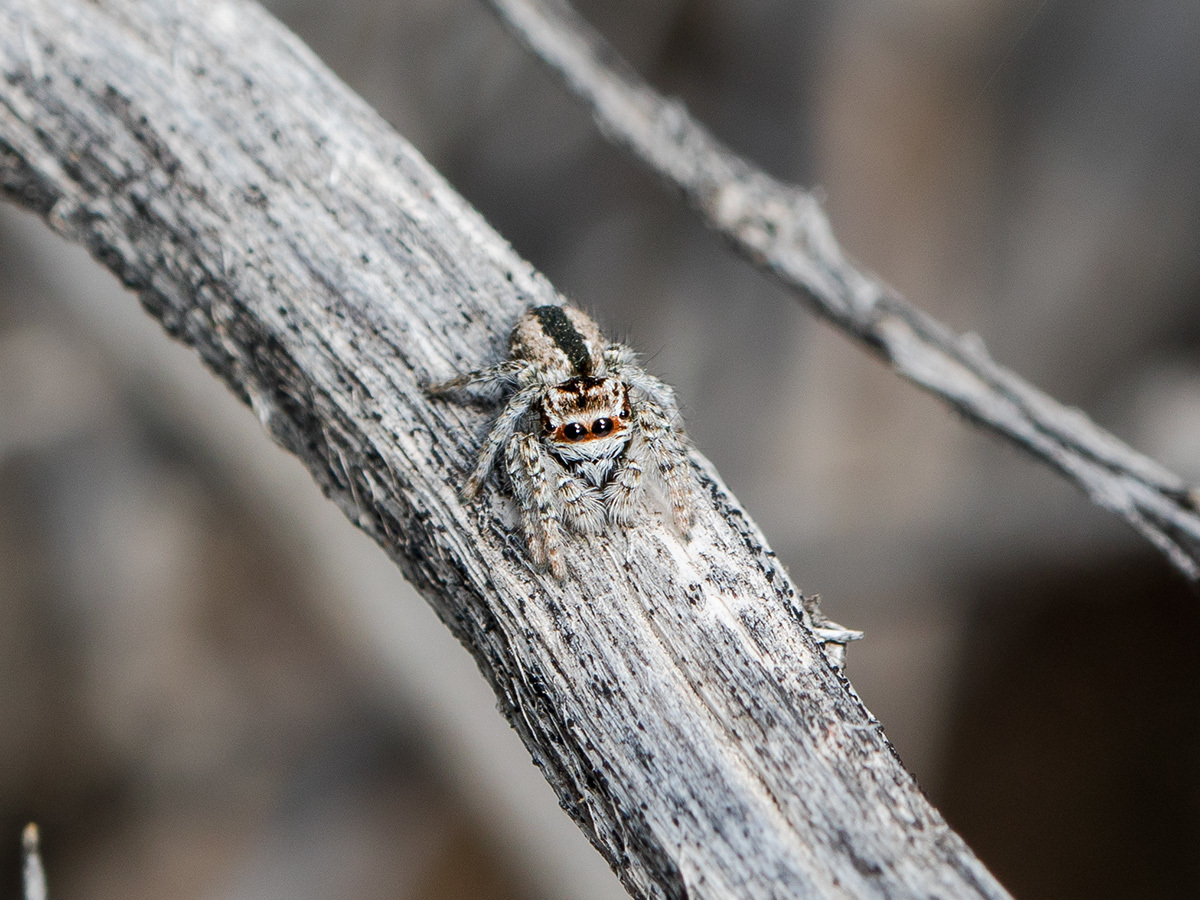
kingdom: Animalia
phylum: Arthropoda
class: Arachnida
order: Araneae
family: Salticidae
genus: Mogrus
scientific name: Mogrus antoninus
